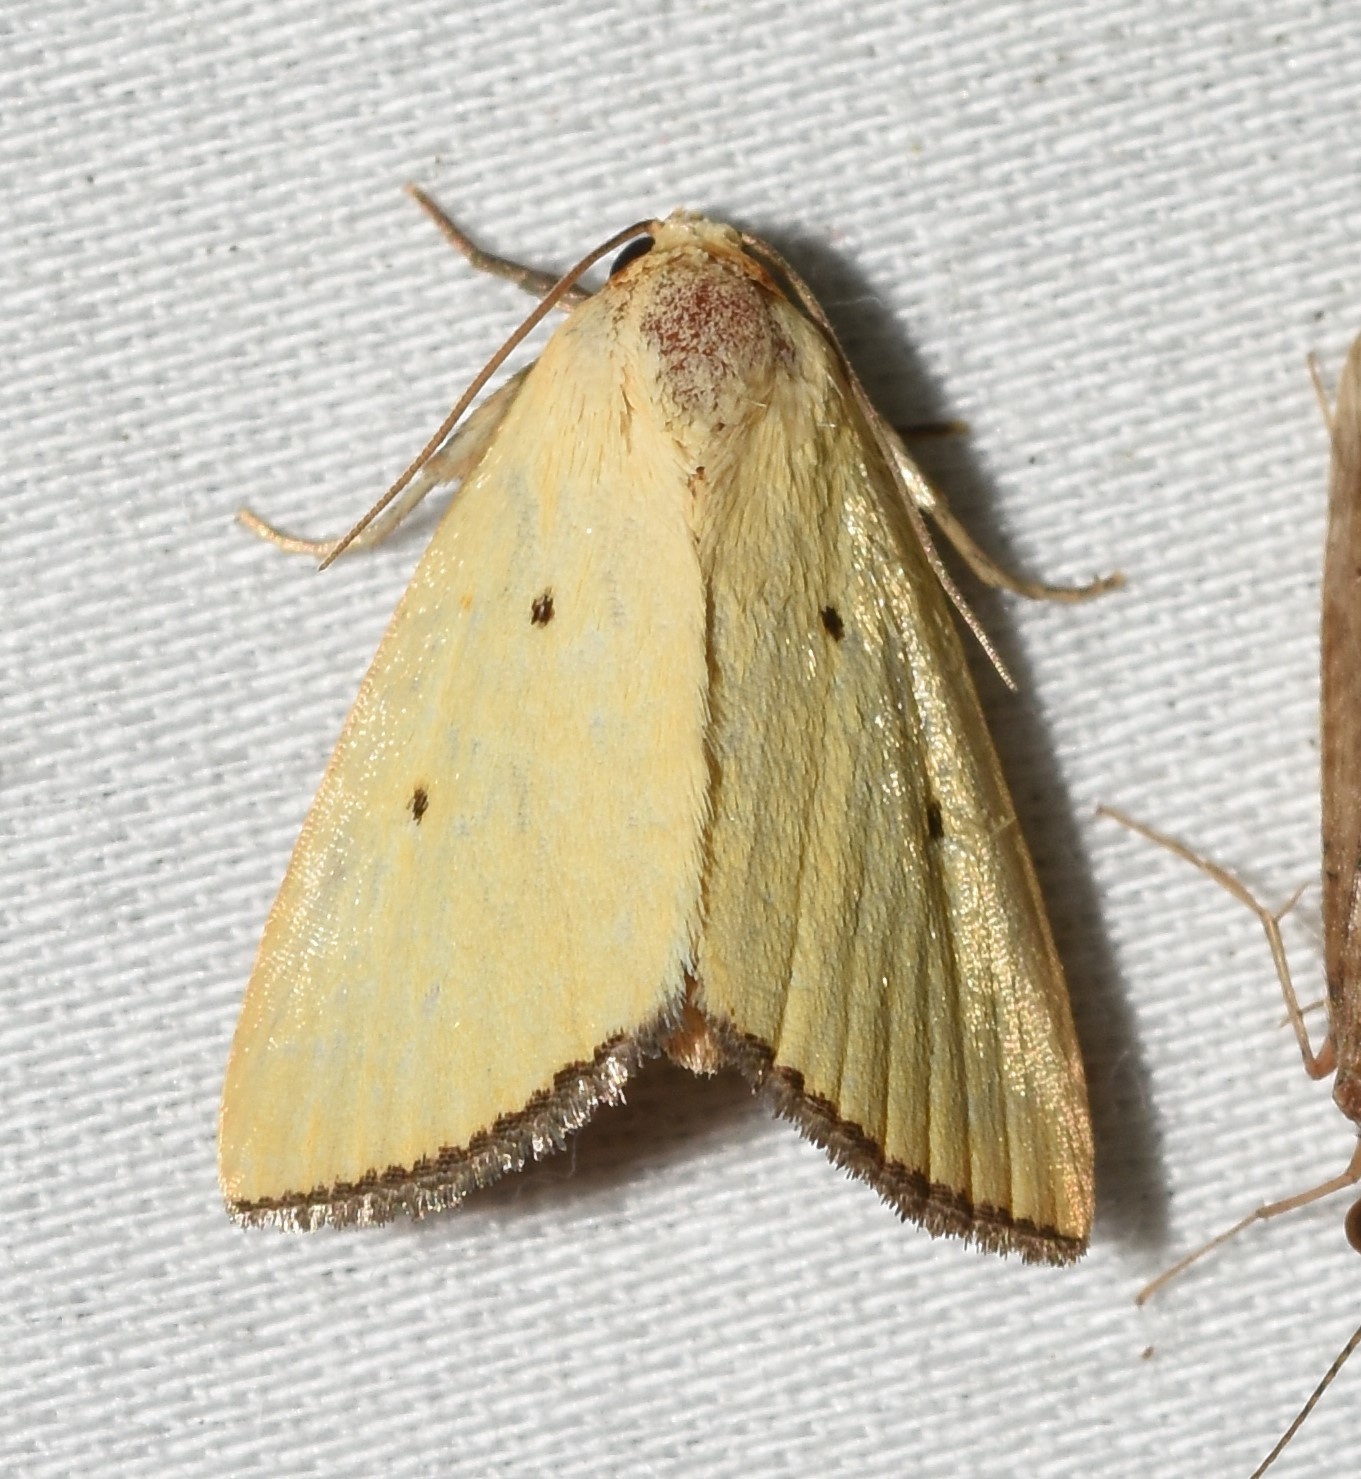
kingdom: Animalia
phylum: Arthropoda
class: Insecta
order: Lepidoptera
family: Noctuidae
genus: Marimatha
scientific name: Marimatha nigrofimbria
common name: Black-bordered lemon moth
